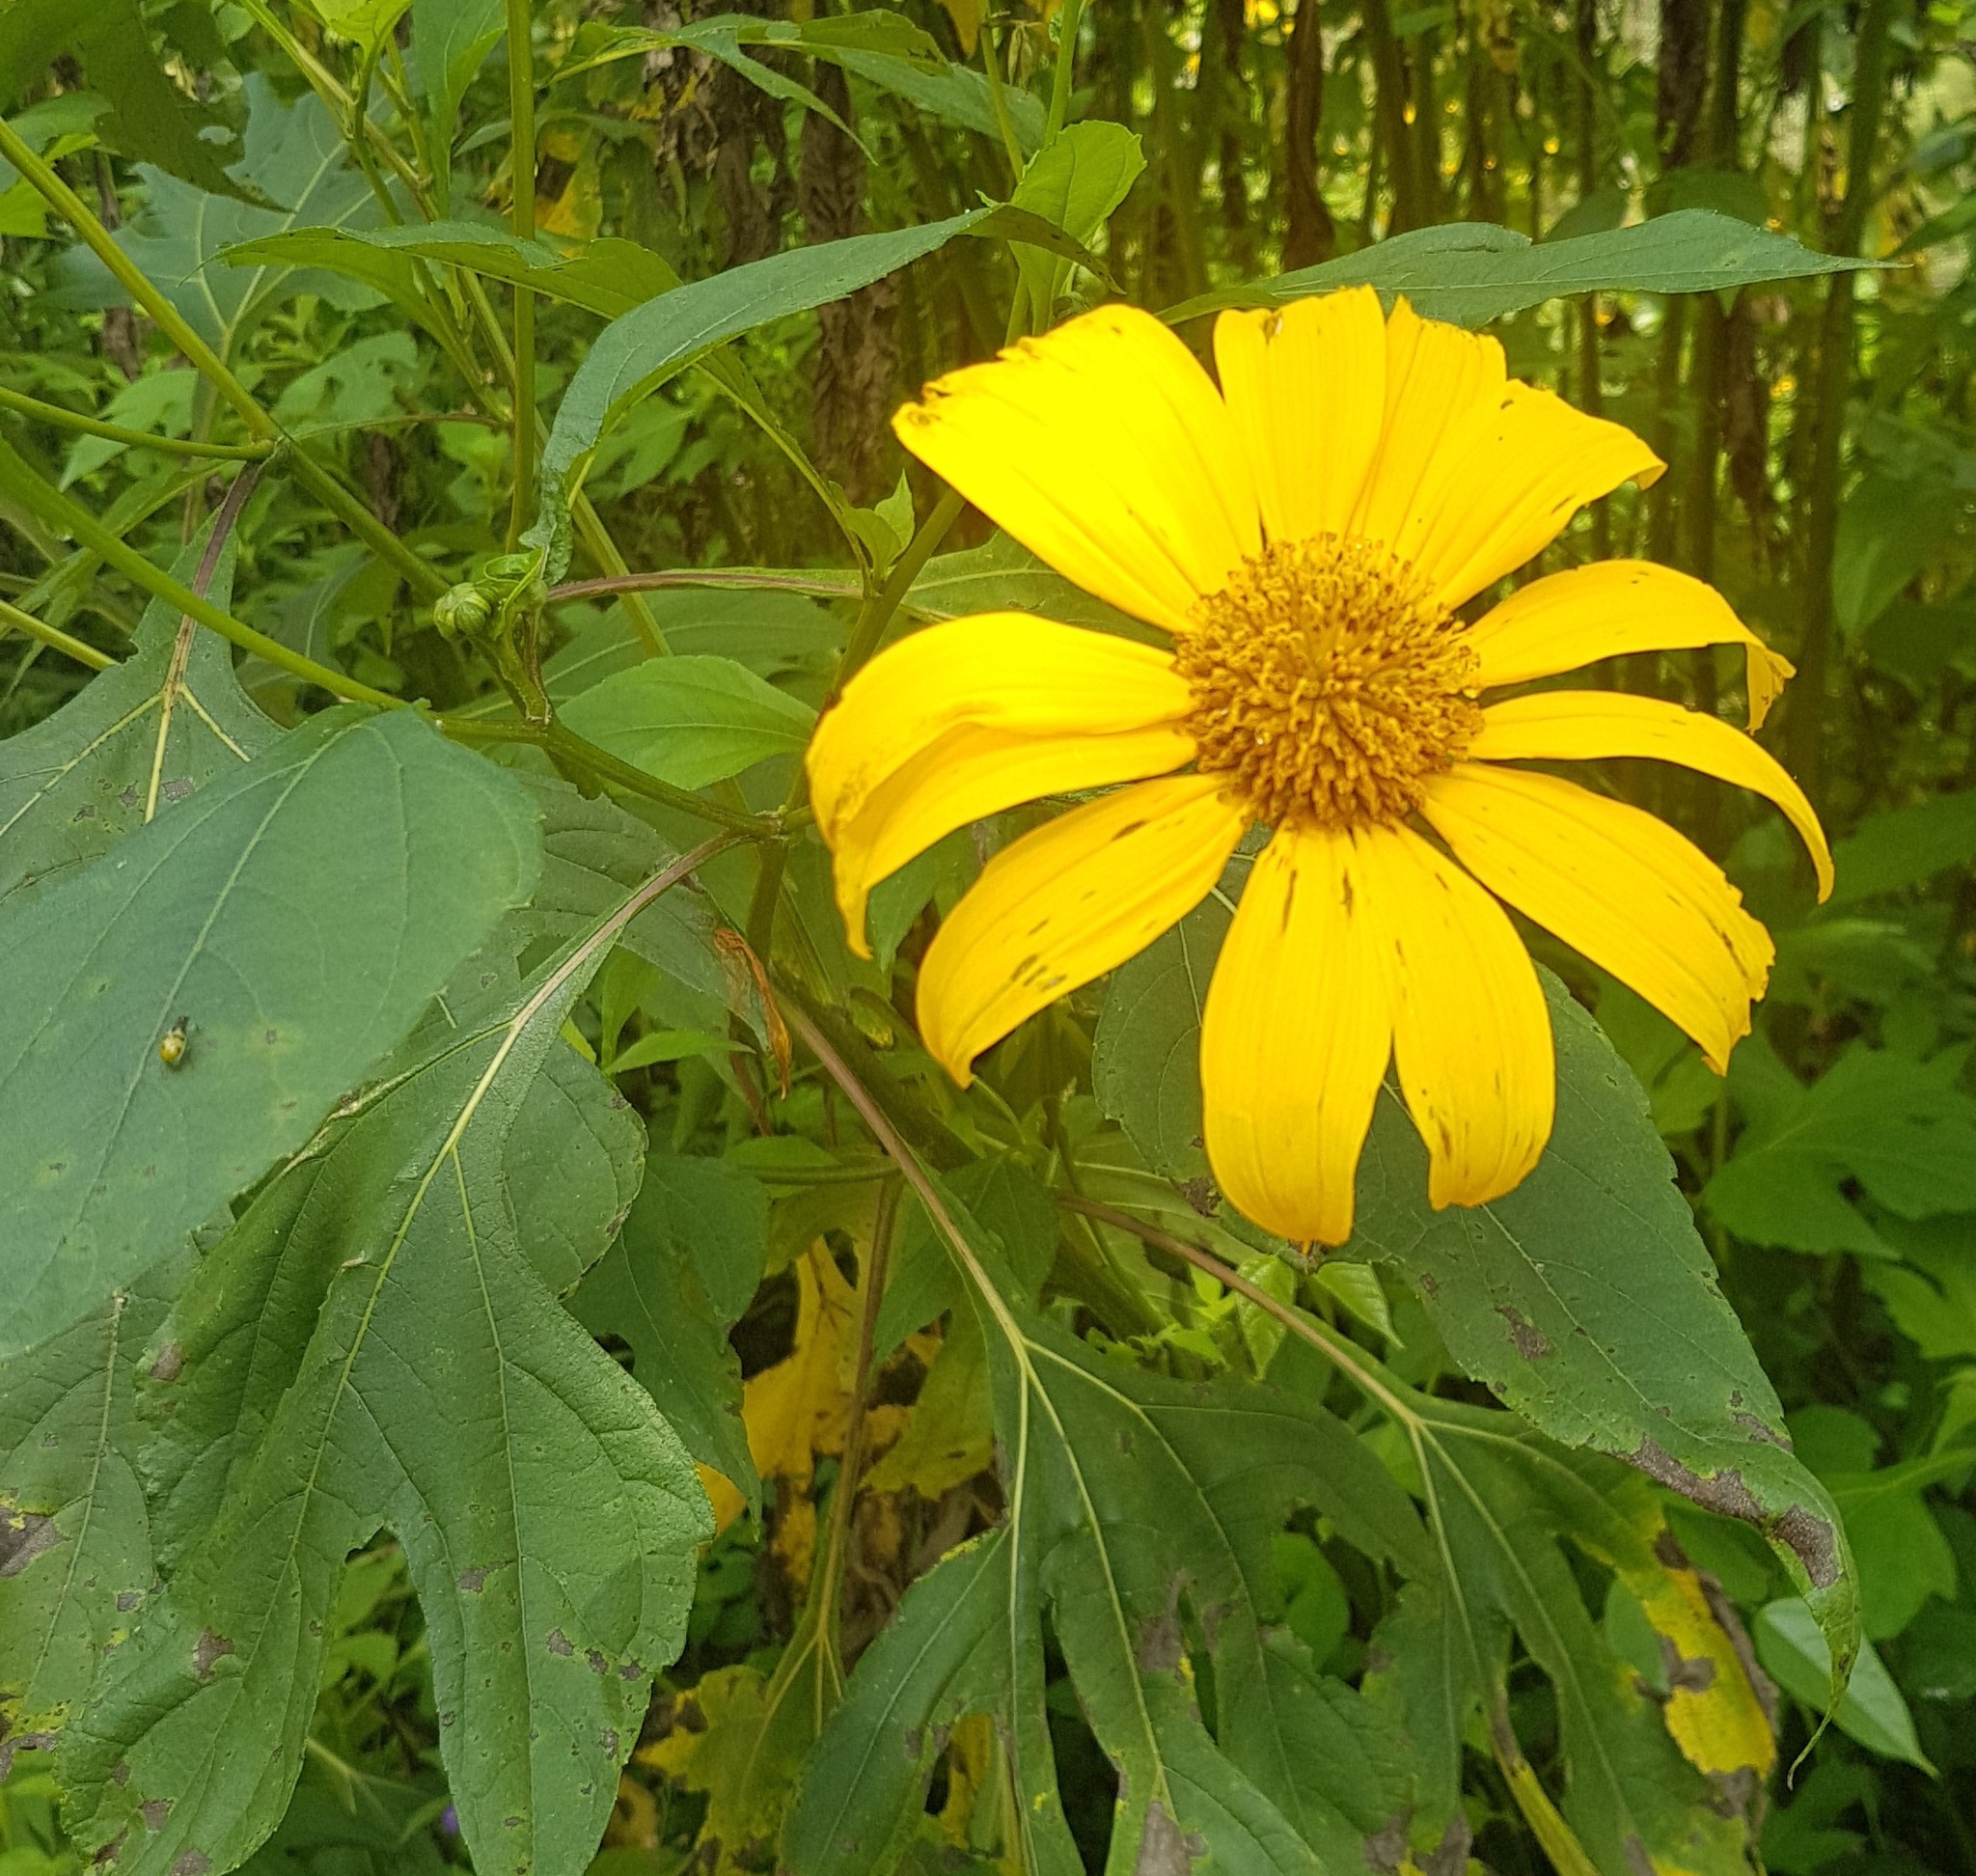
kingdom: Plantae
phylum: Tracheophyta
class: Magnoliopsida
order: Asterales
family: Asteraceae
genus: Tithonia
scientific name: Tithonia diversifolia
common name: Tree marigold
